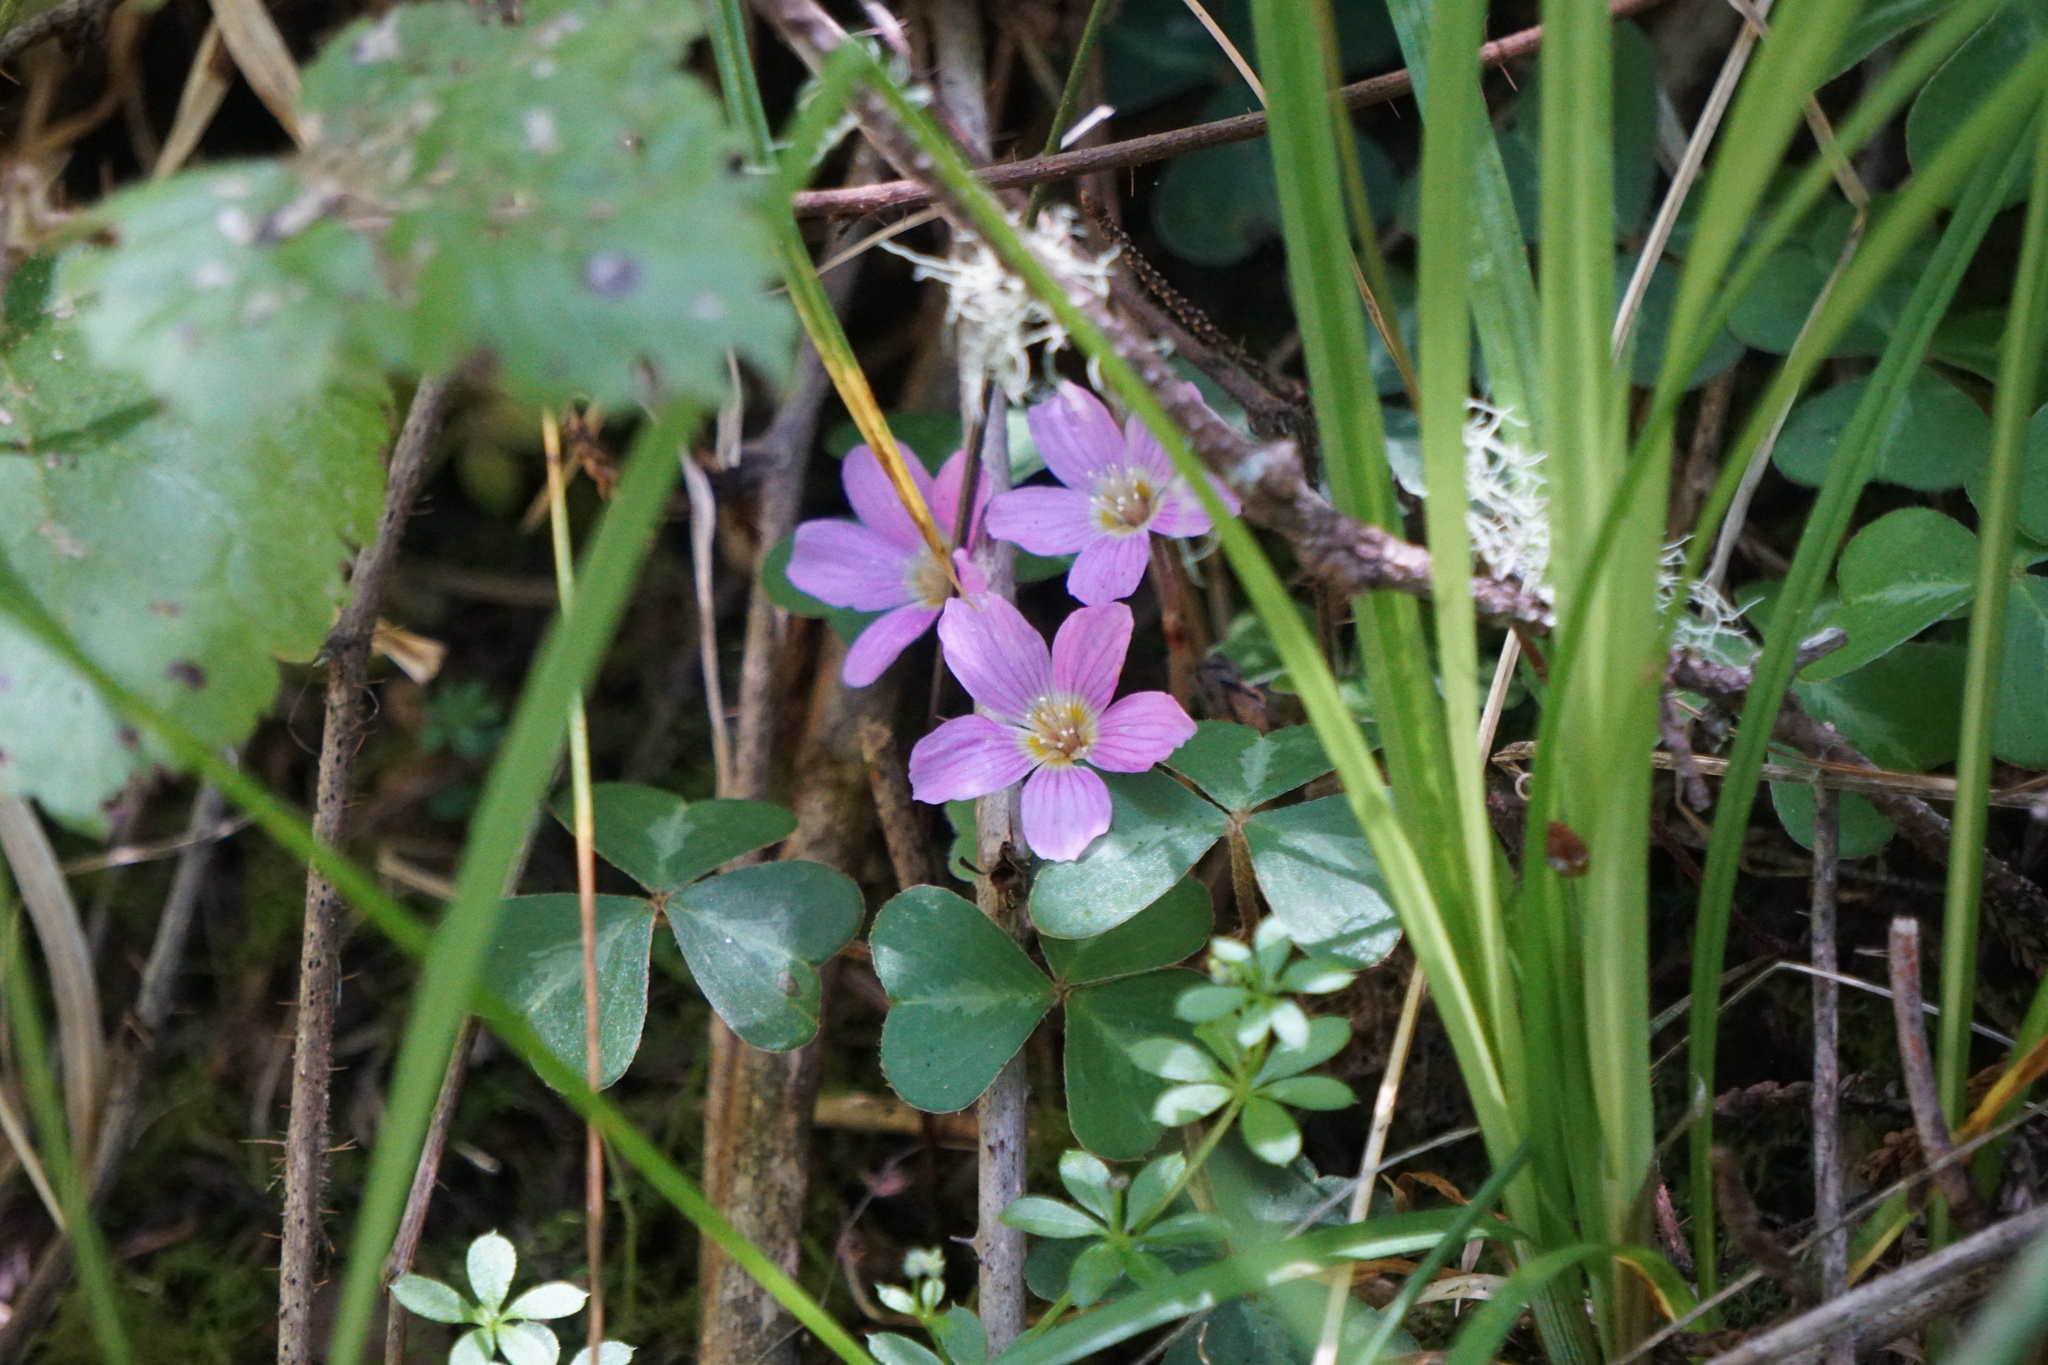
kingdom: Plantae
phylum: Tracheophyta
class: Magnoliopsida
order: Oxalidales
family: Oxalidaceae
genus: Oxalis
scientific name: Oxalis oregana
